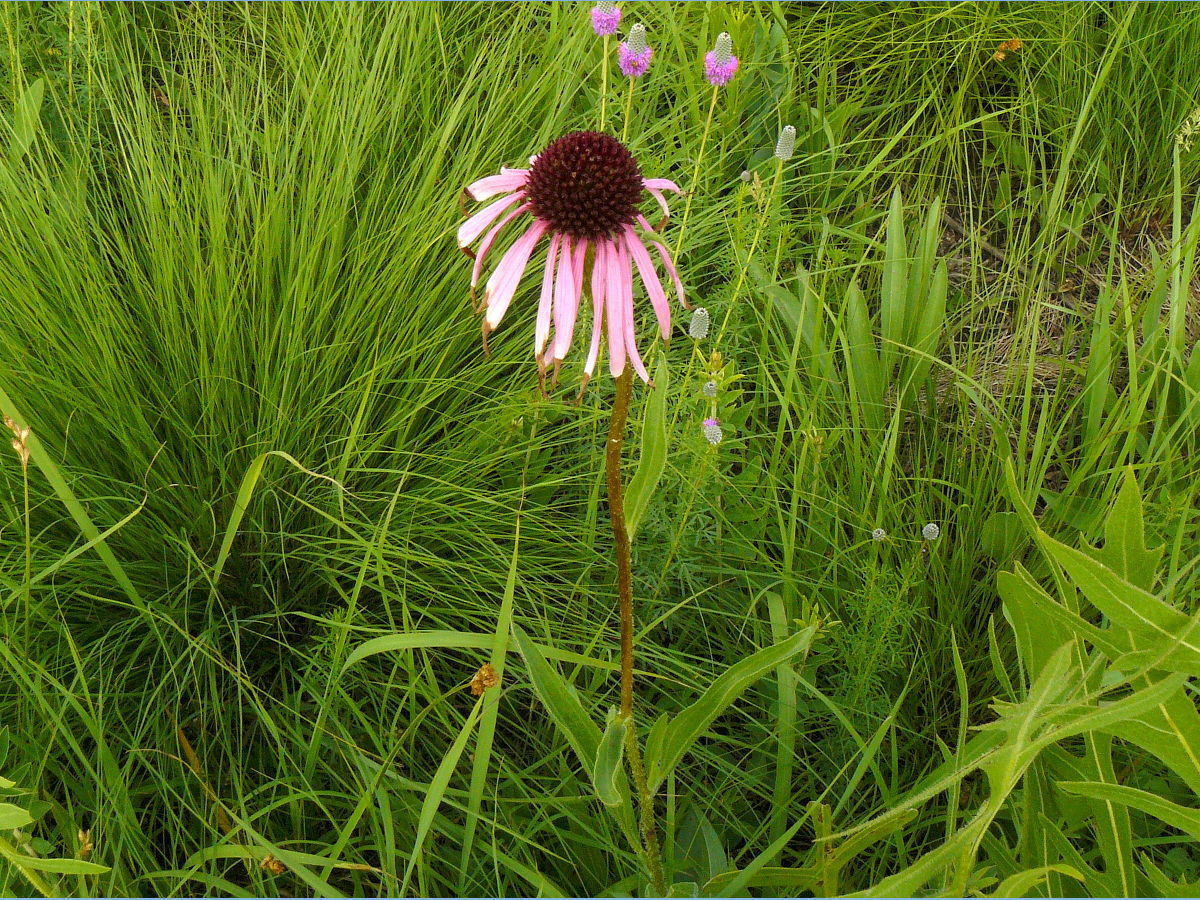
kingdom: Plantae
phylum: Tracheophyta
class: Magnoliopsida
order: Asterales
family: Asteraceae
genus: Echinacea
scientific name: Echinacea pallida
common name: Pale echinacea
